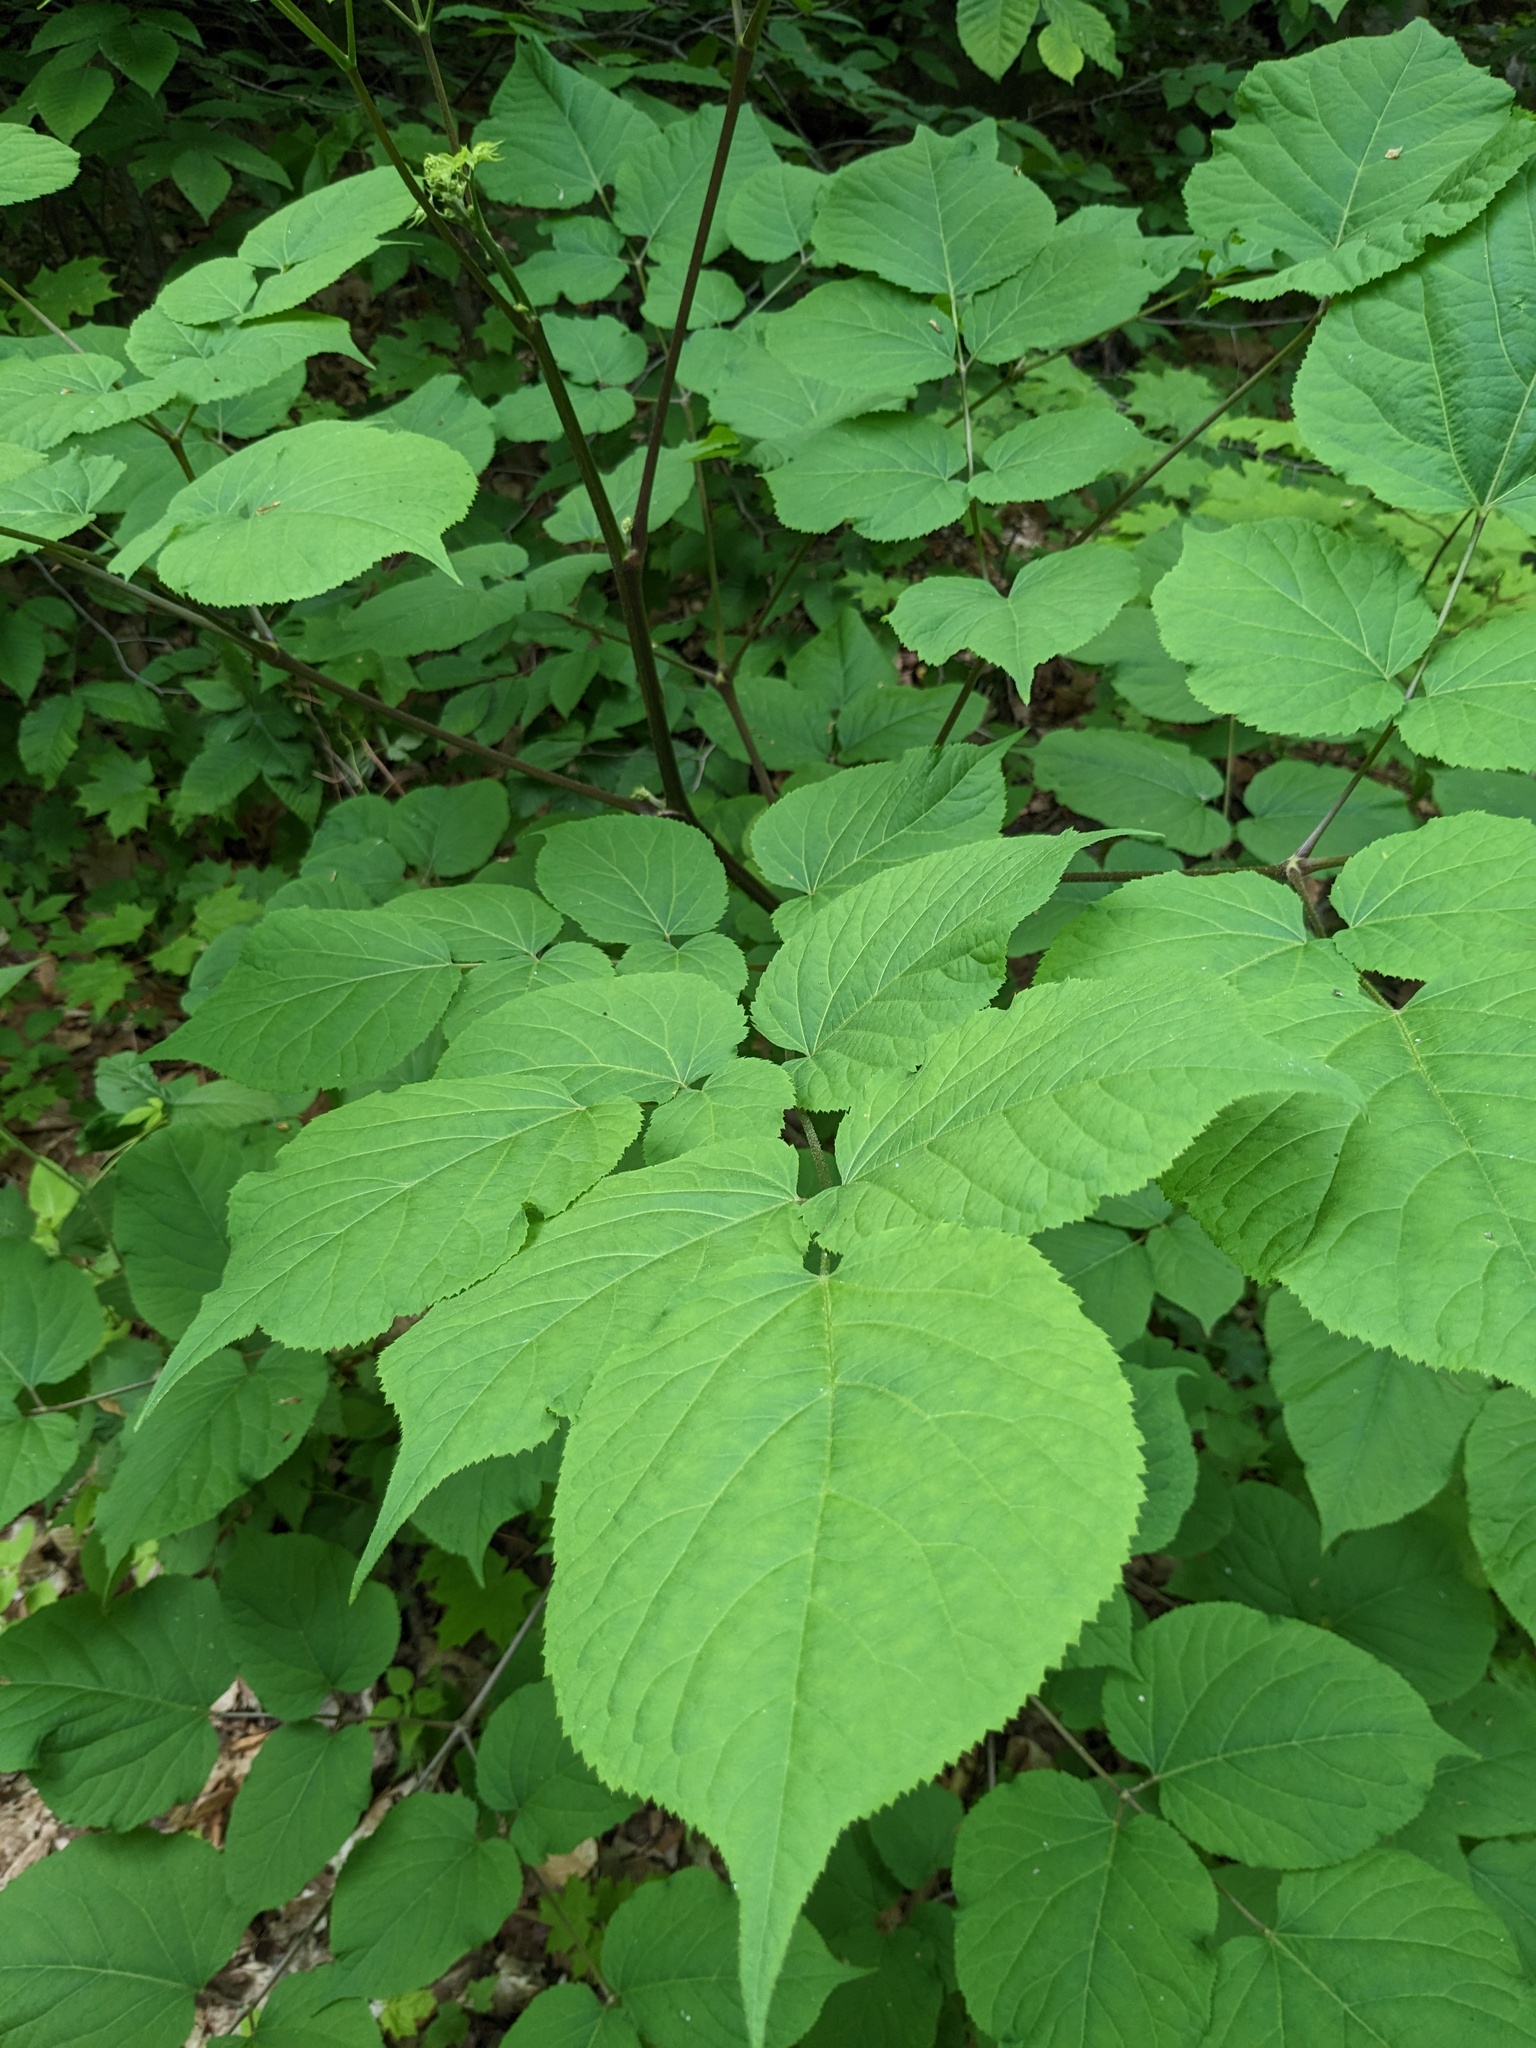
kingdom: Plantae
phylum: Tracheophyta
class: Magnoliopsida
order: Apiales
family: Araliaceae
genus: Aralia
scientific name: Aralia racemosa
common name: American-spikenard
